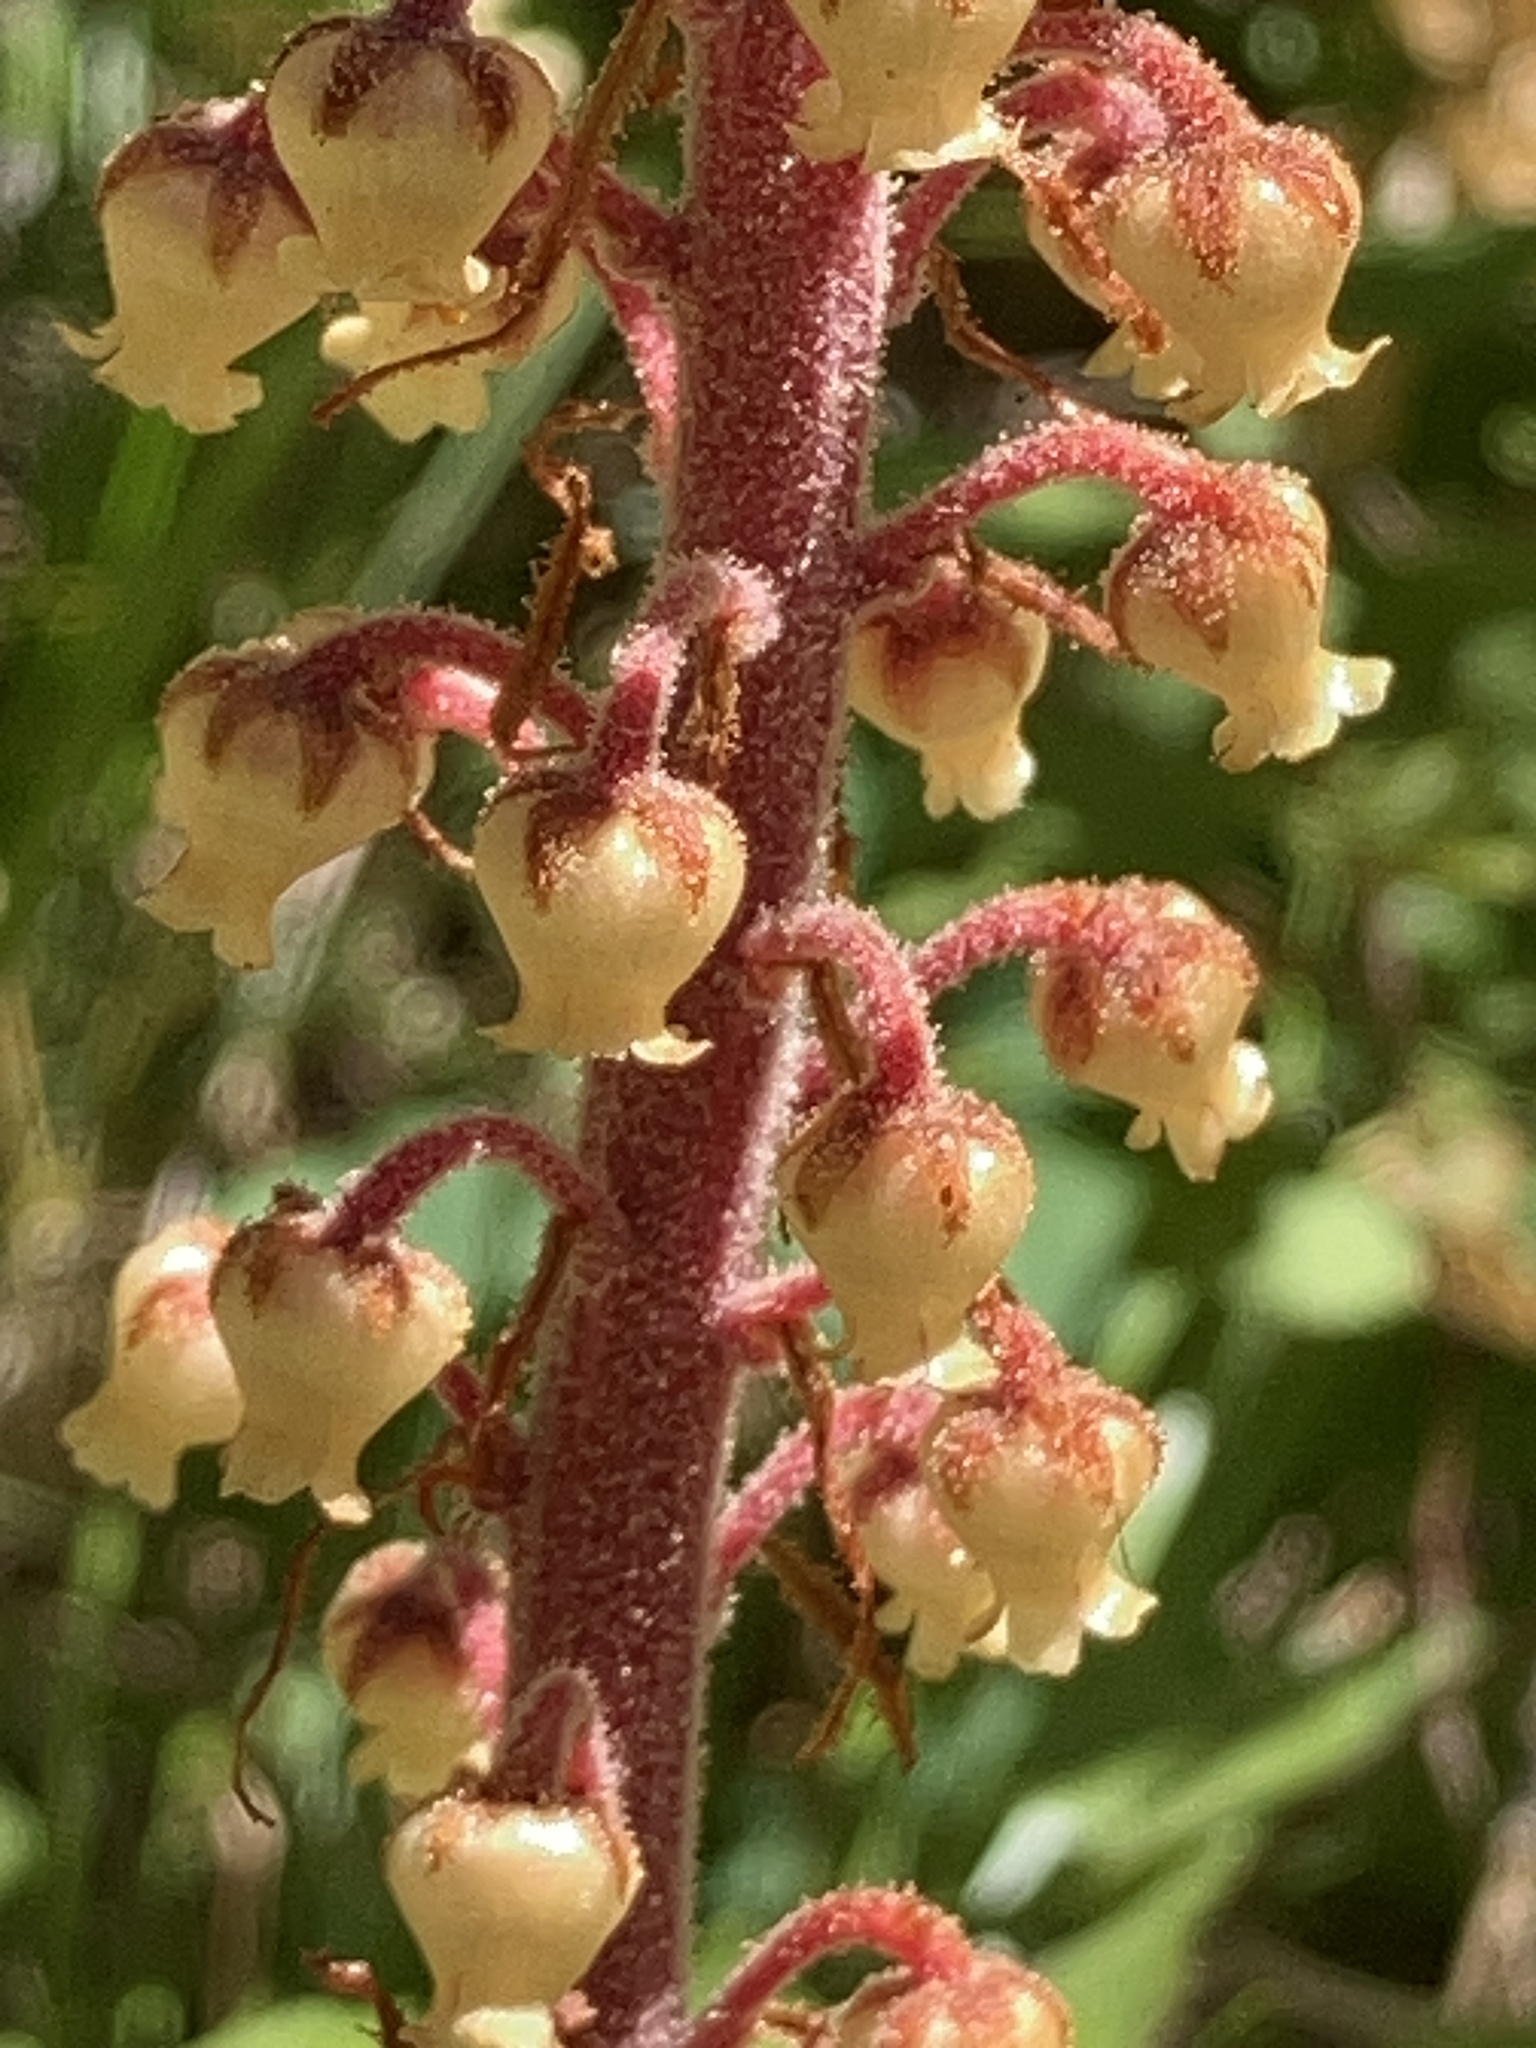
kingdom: Plantae
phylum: Tracheophyta
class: Magnoliopsida
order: Ericales
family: Ericaceae
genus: Pterospora
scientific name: Pterospora andromedea
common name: Giant bird's-nest
